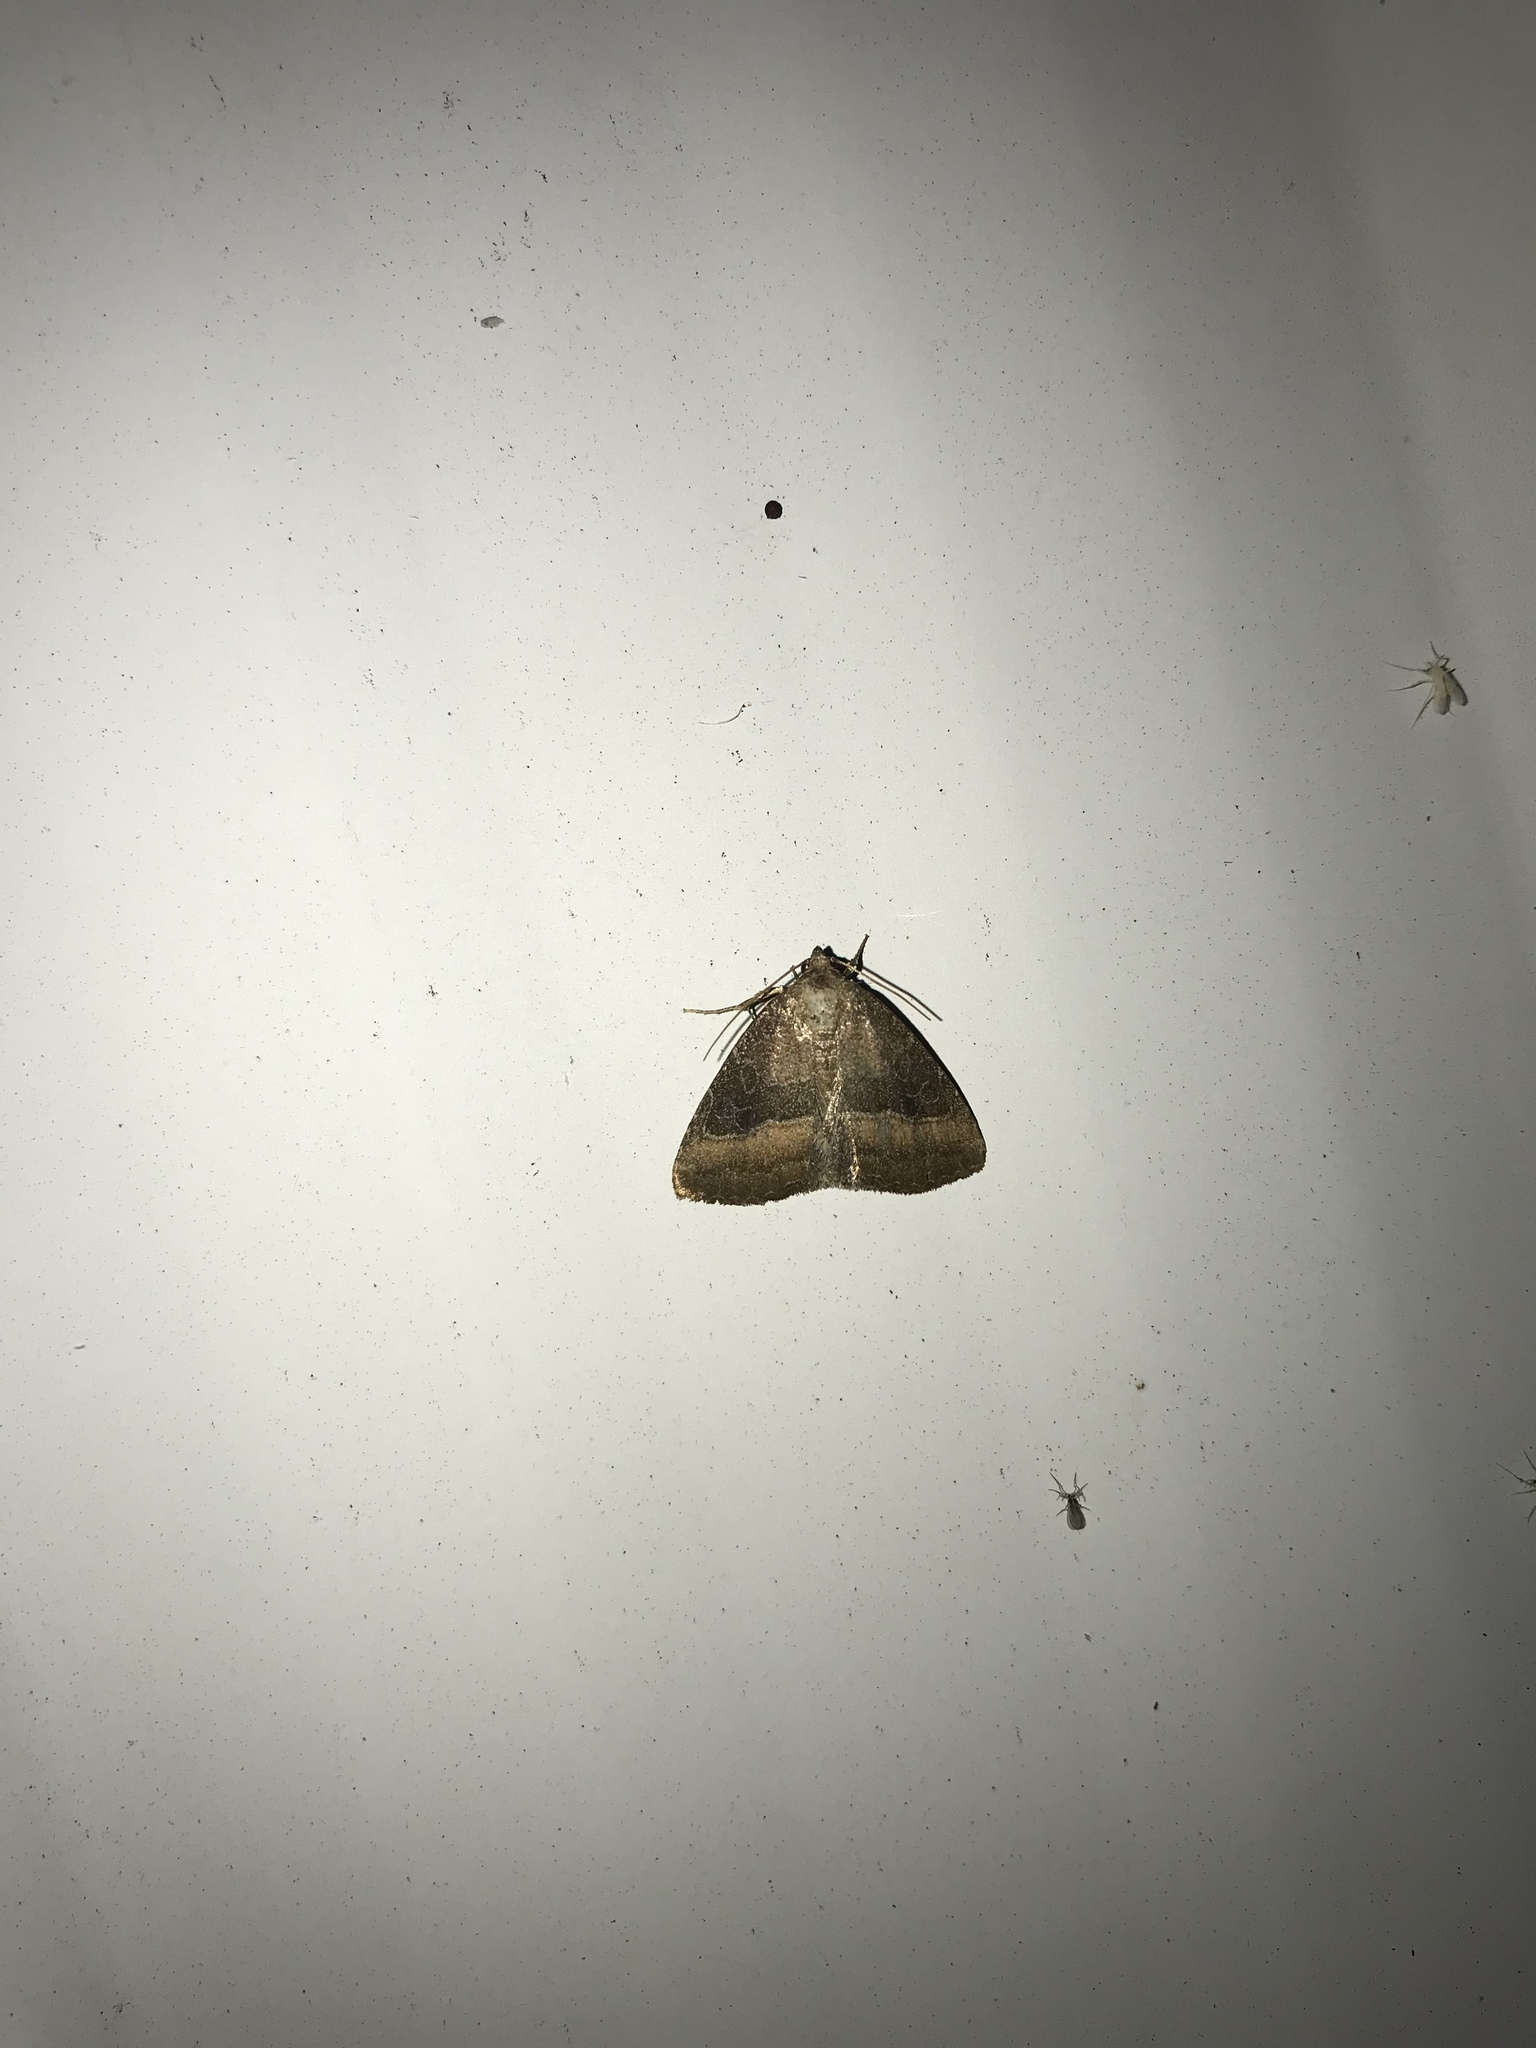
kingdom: Animalia
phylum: Arthropoda
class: Insecta
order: Lepidoptera
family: Noctuidae
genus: Ogdoconta
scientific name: Ogdoconta cinereola
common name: Common pinkband
